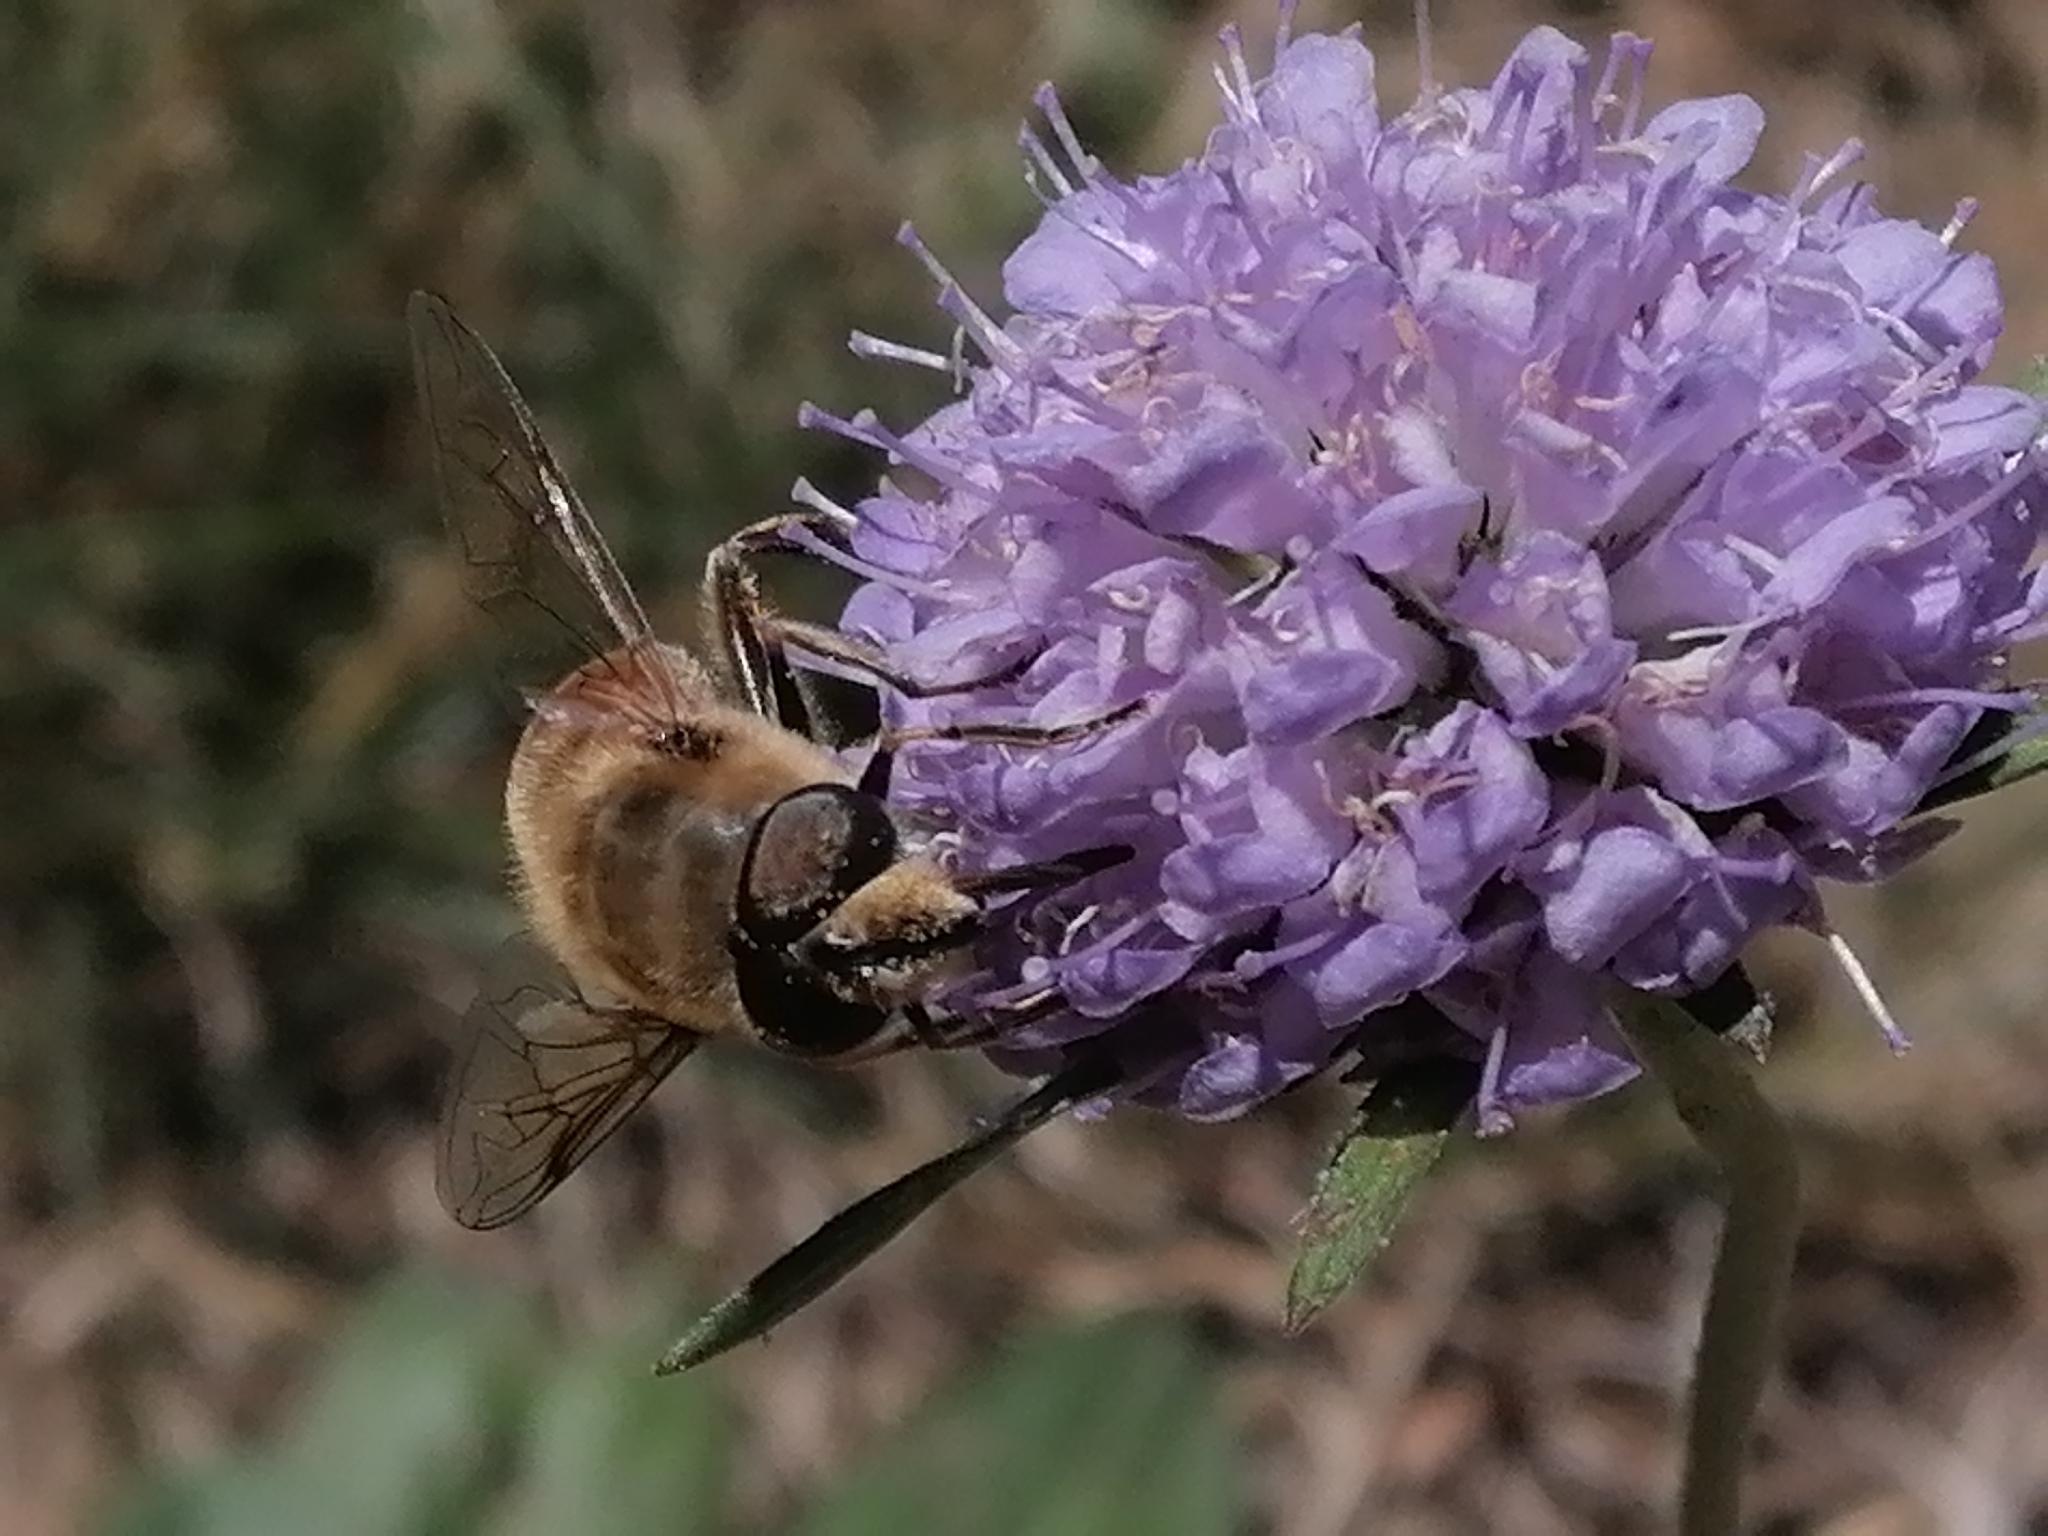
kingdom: Animalia
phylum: Arthropoda
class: Insecta
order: Diptera
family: Syrphidae
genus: Eristalis
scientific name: Eristalis tenax
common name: Drone fly
